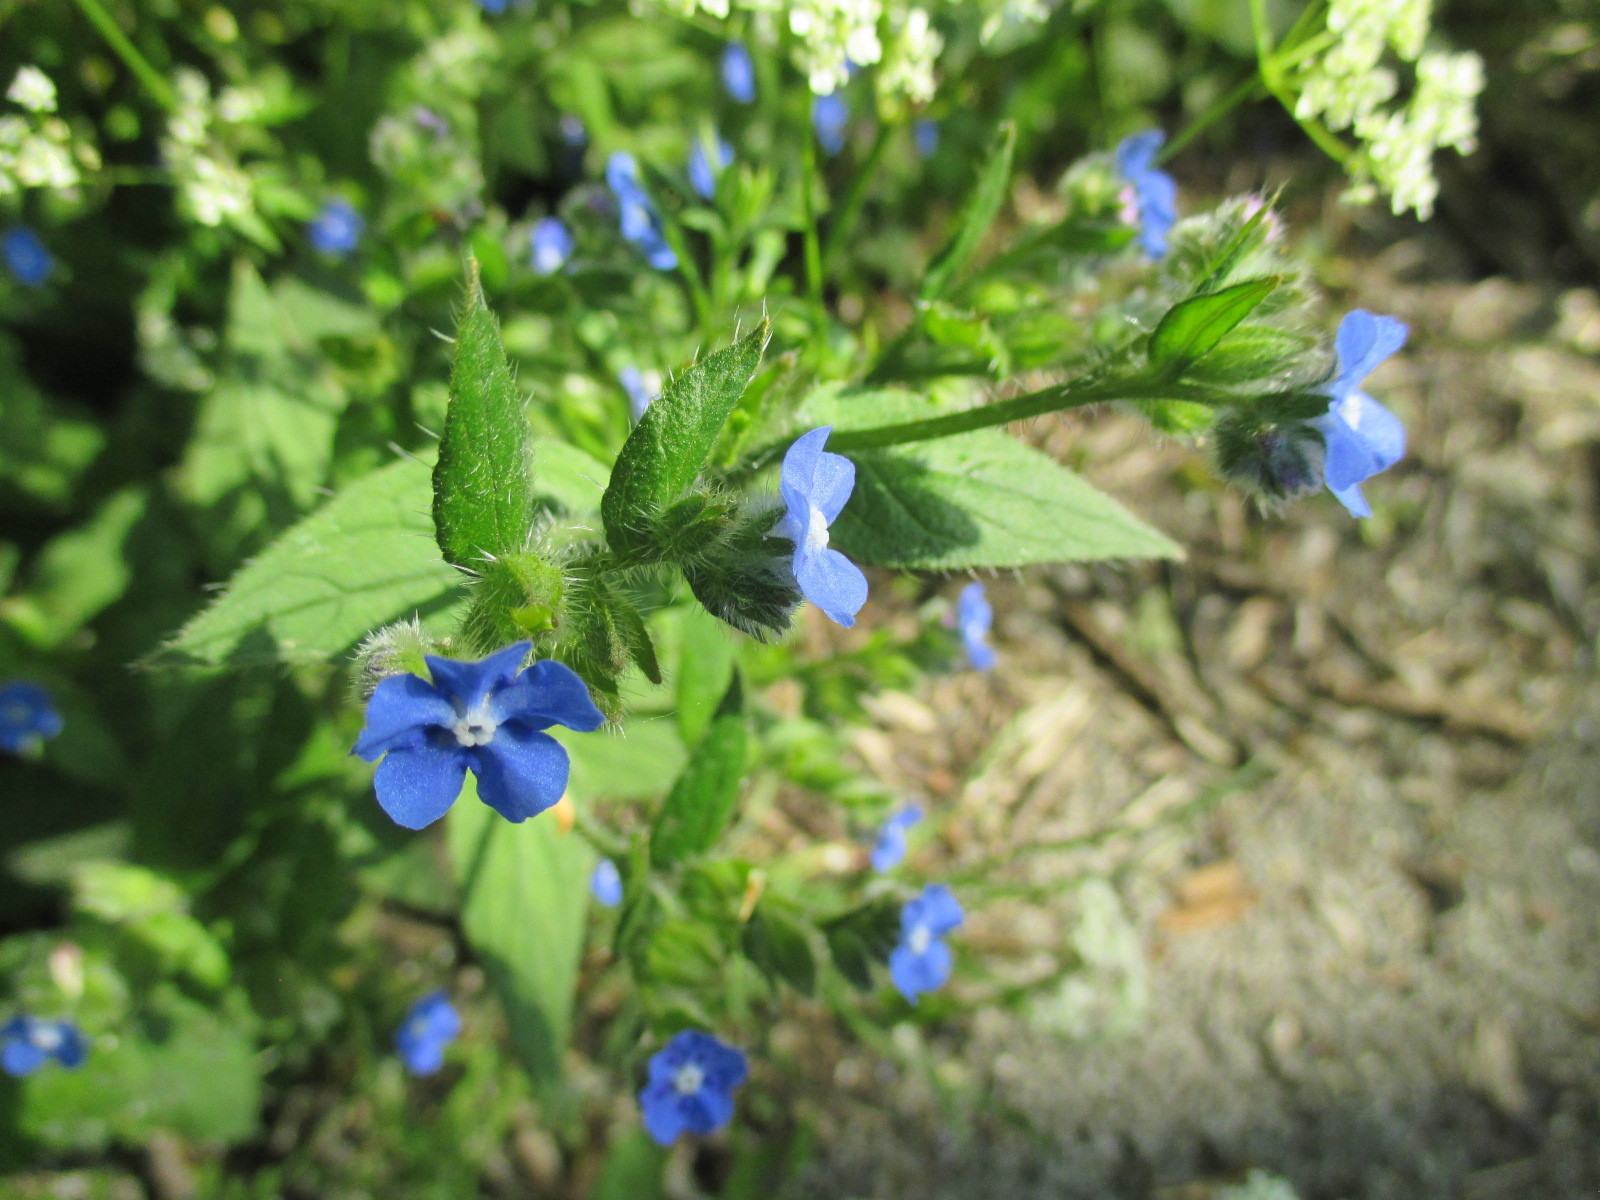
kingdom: Plantae
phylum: Tracheophyta
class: Magnoliopsida
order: Boraginales
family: Boraginaceae
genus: Pentaglottis
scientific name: Pentaglottis sempervirens
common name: Green alkanet
